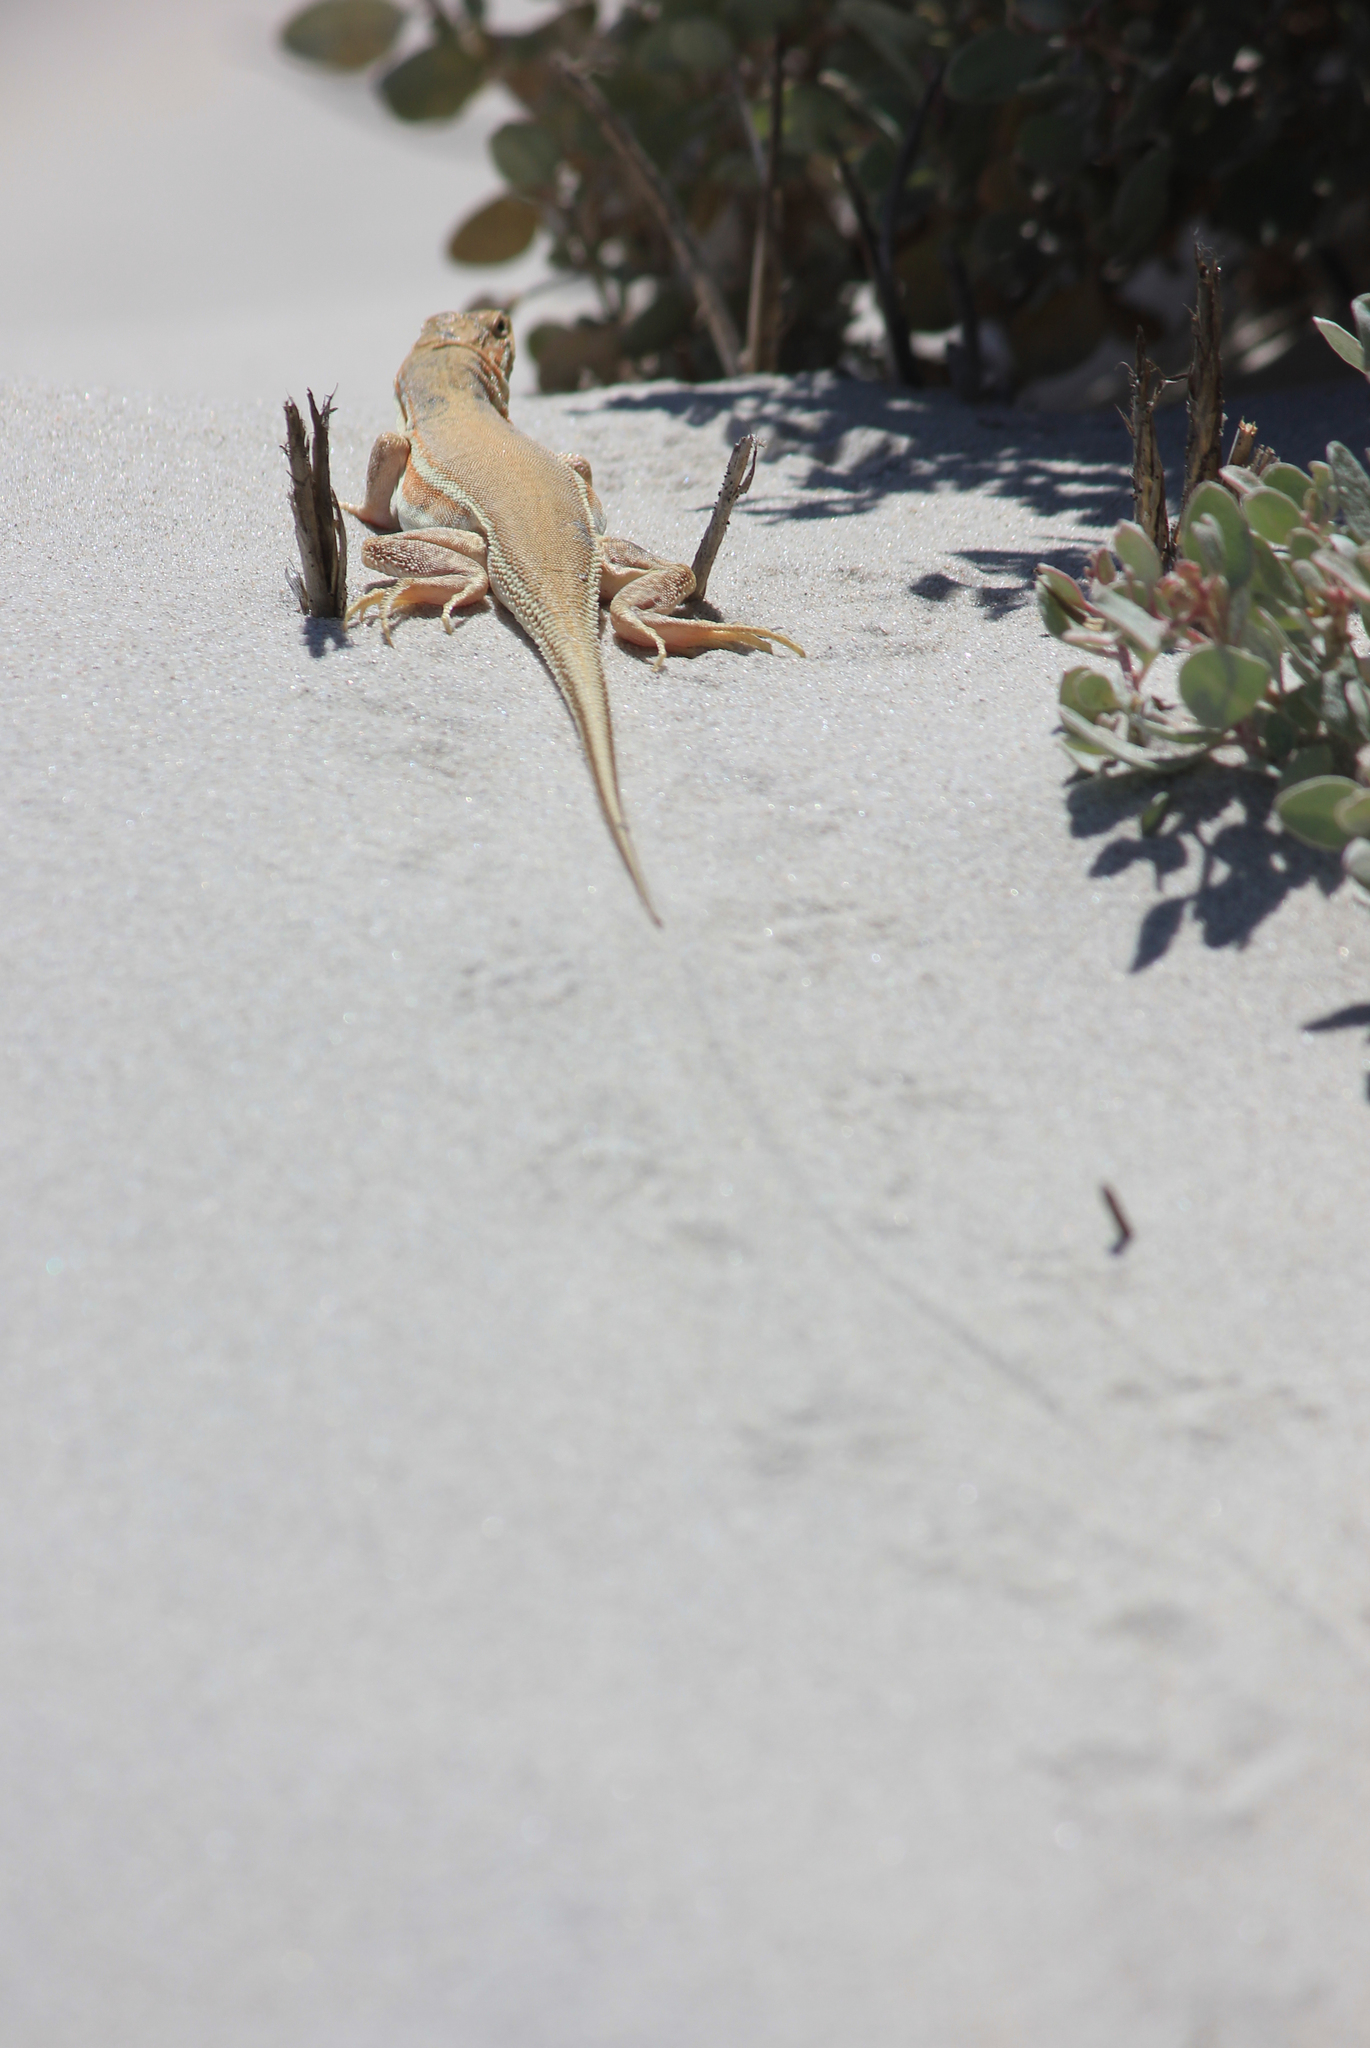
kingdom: Animalia
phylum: Chordata
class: Squamata
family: Lacertidae
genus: Meroles
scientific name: Meroles ctenodactylus
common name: Giant desert lizard
